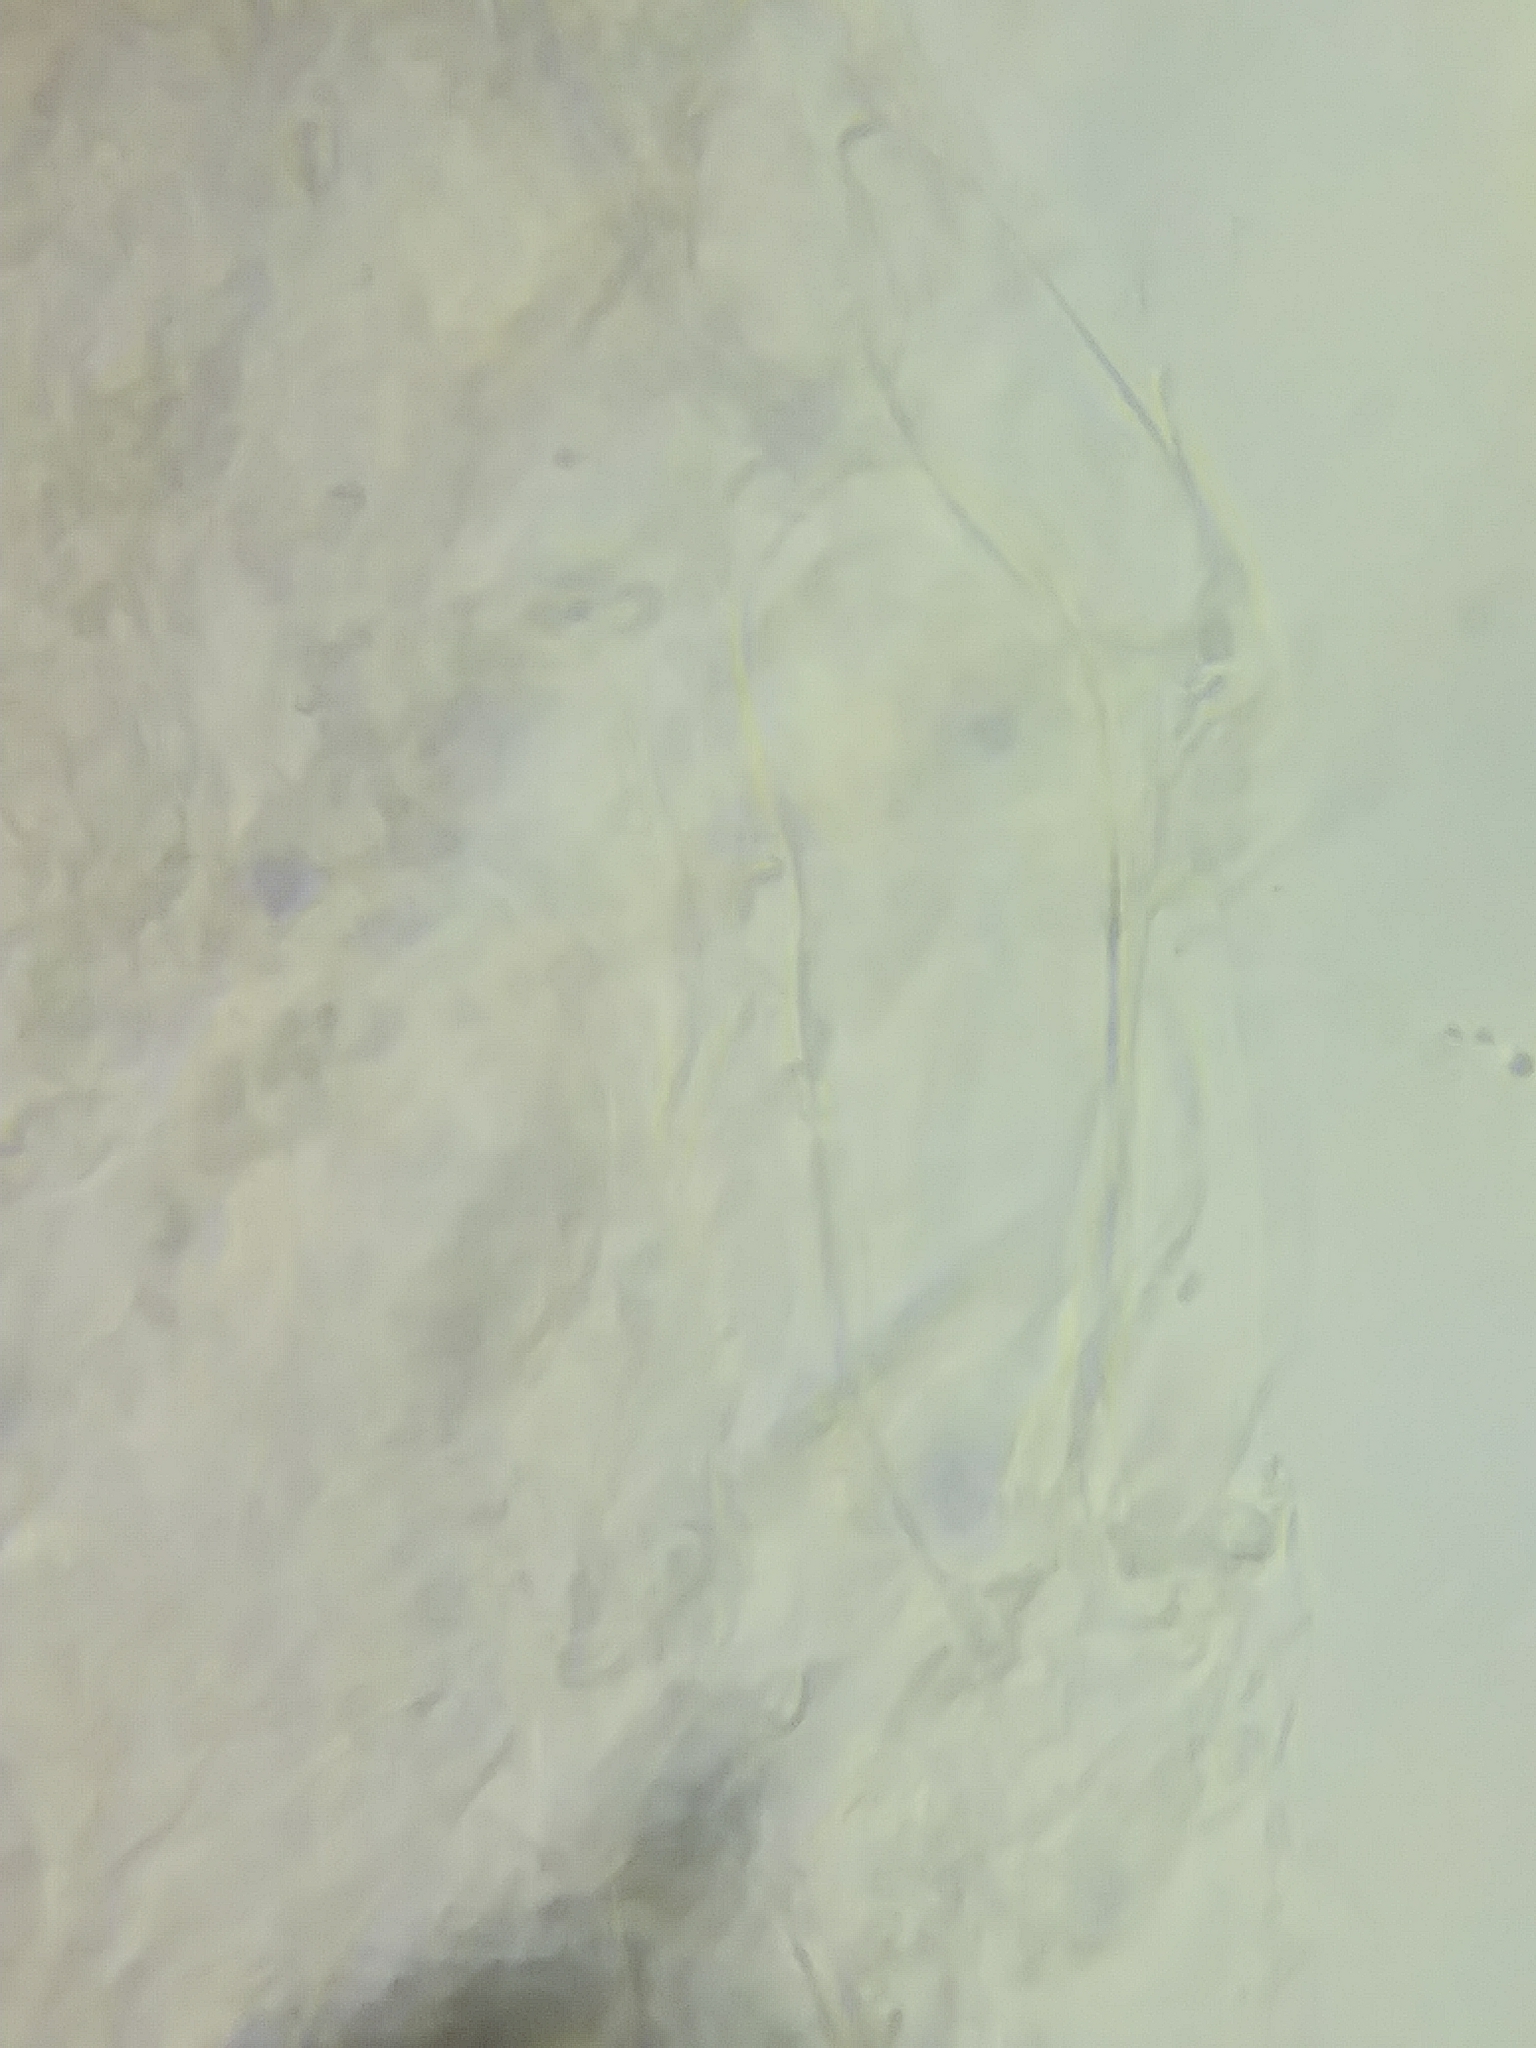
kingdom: Fungi
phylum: Basidiomycota
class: Agaricomycetes
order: Agaricales
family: Amanitaceae
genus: Amanita
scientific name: Amanita flavoconia
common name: Yellow patches
